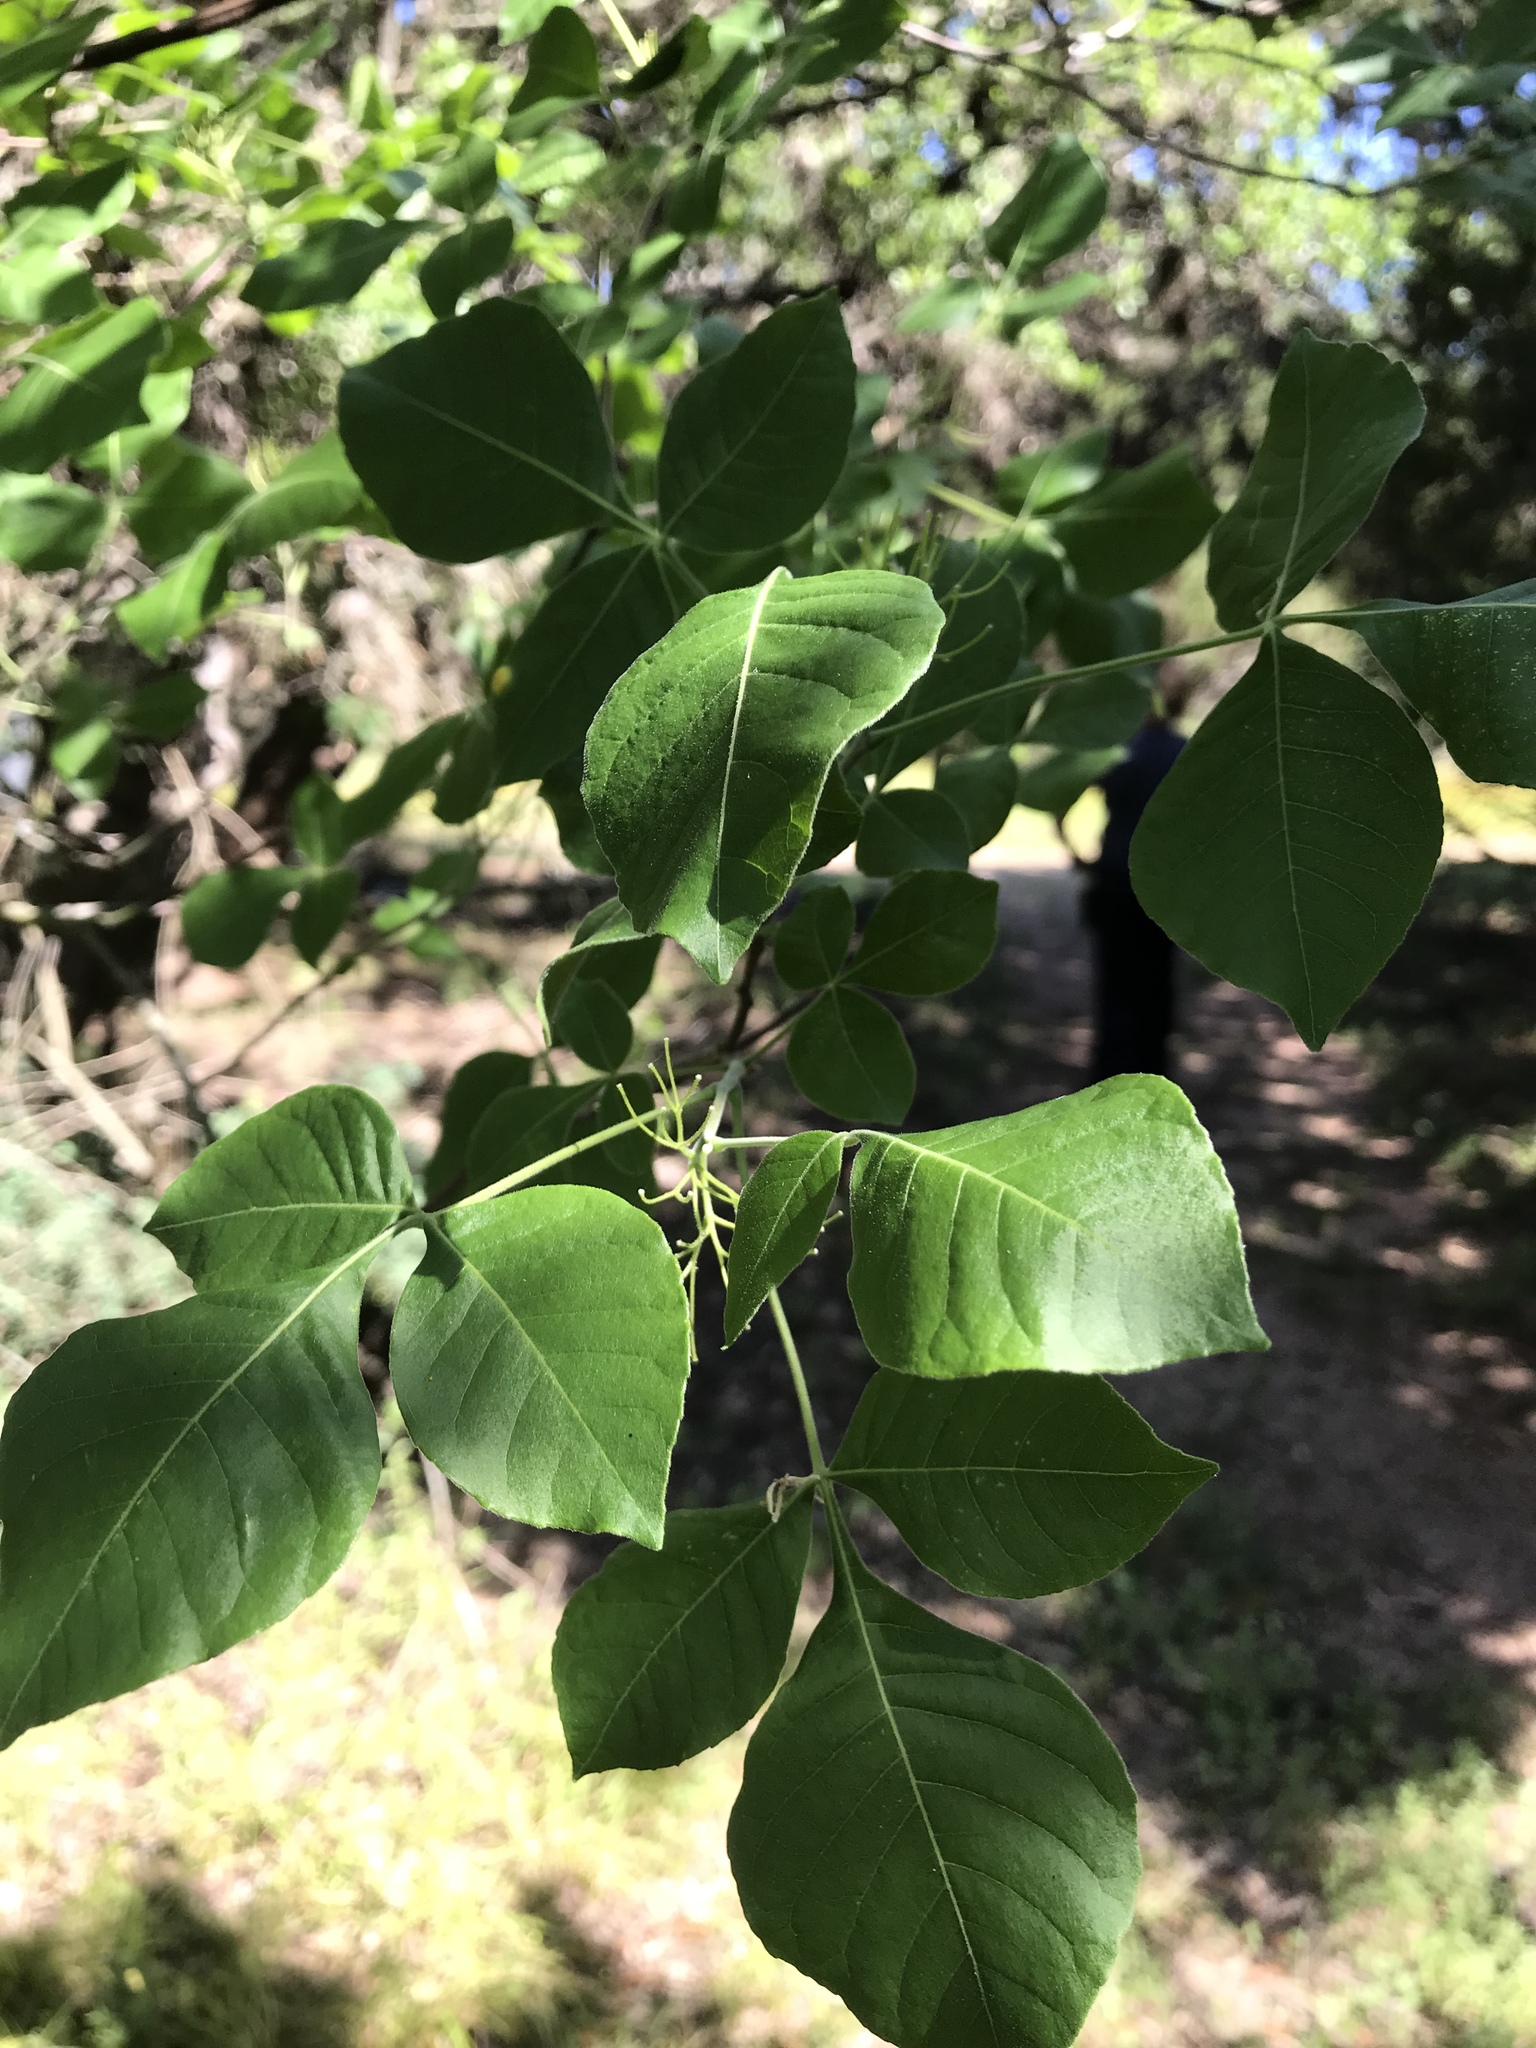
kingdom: Plantae
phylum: Tracheophyta
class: Magnoliopsida
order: Sapindales
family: Rutaceae
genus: Ptelea
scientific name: Ptelea trifoliata
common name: Common hop-tree
